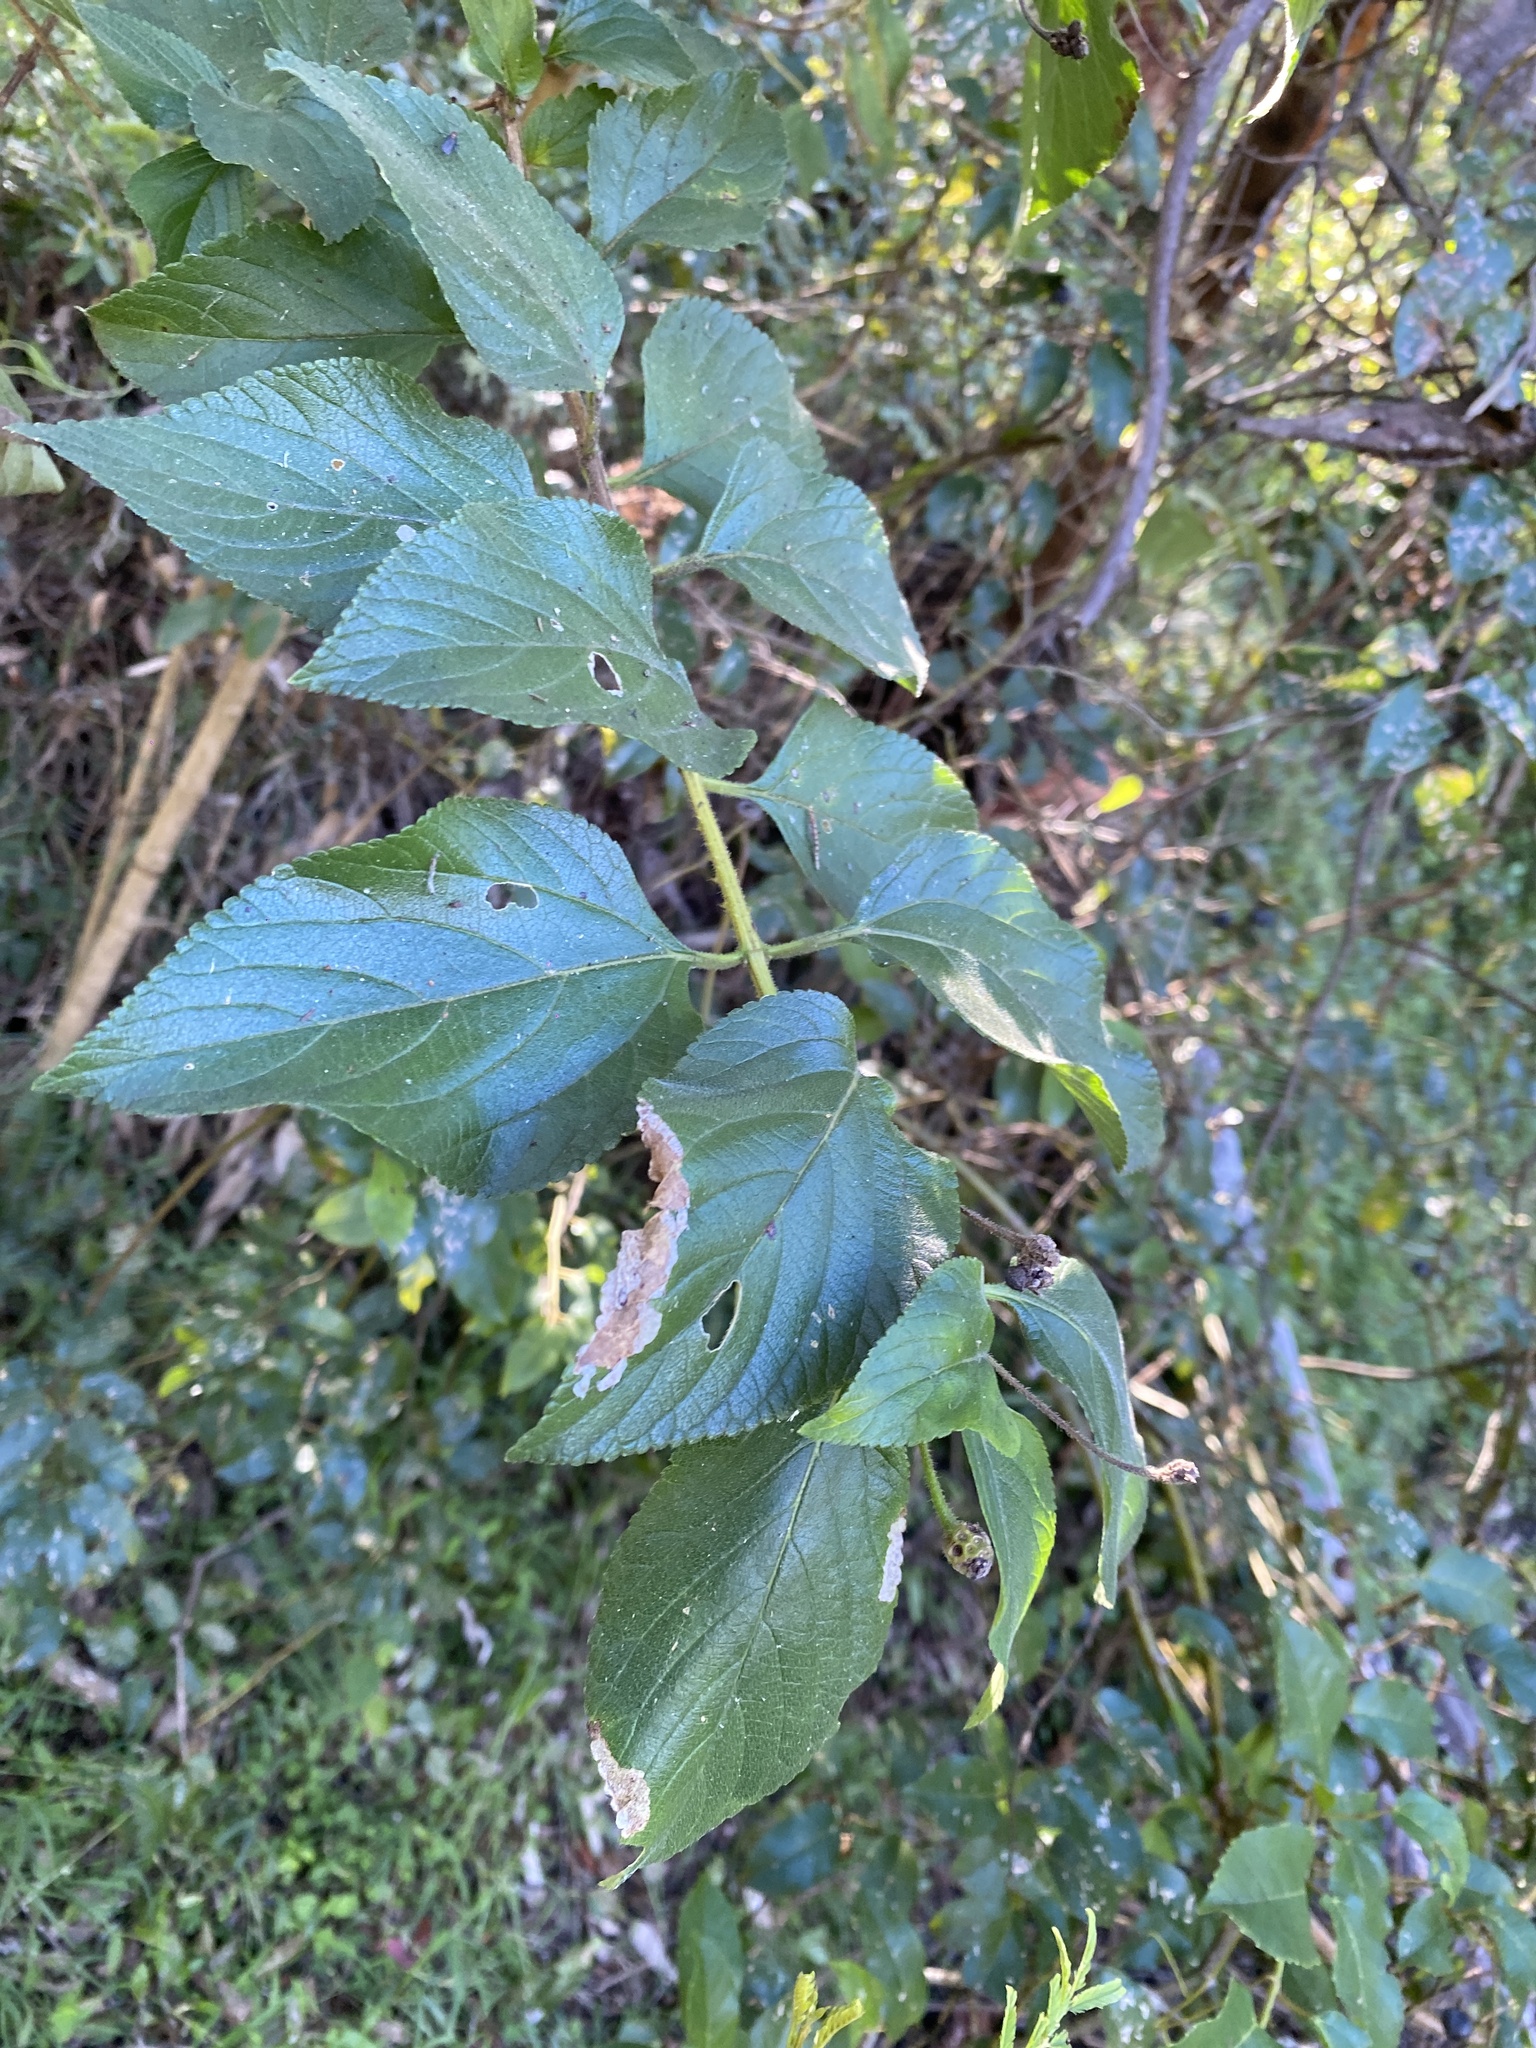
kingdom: Plantae
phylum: Tracheophyta
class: Magnoliopsida
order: Lamiales
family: Verbenaceae
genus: Lantana
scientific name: Lantana camara
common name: Lantana
